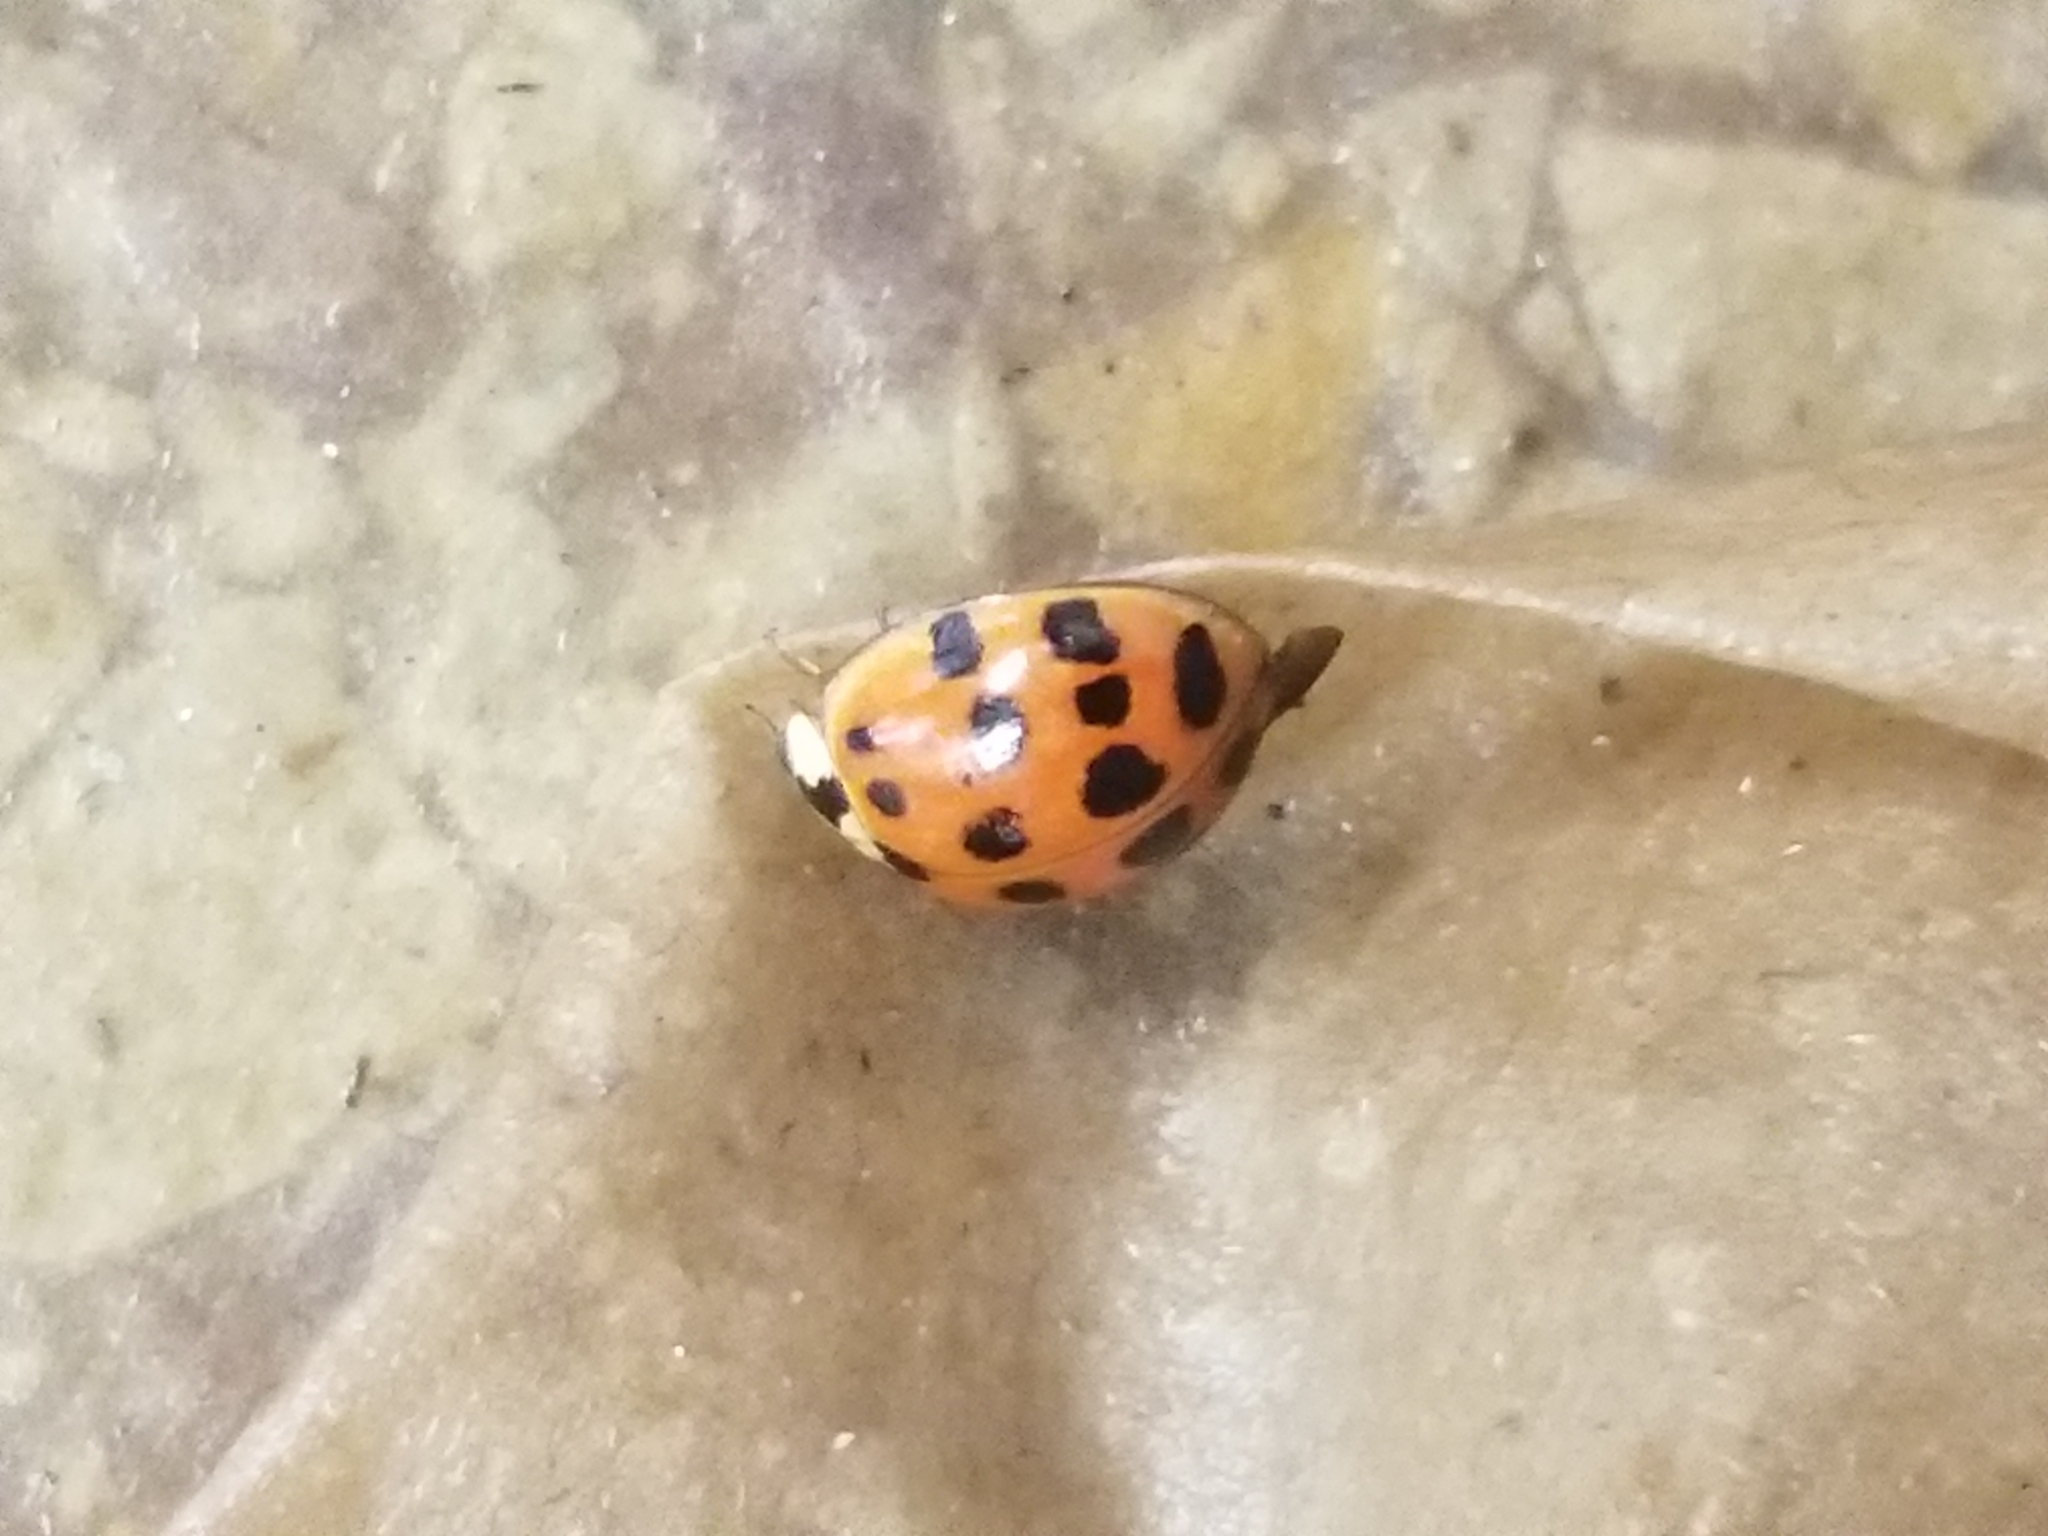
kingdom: Animalia
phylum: Arthropoda
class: Insecta
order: Coleoptera
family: Coccinellidae
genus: Harmonia
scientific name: Harmonia axyridis
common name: Harlequin ladybird
